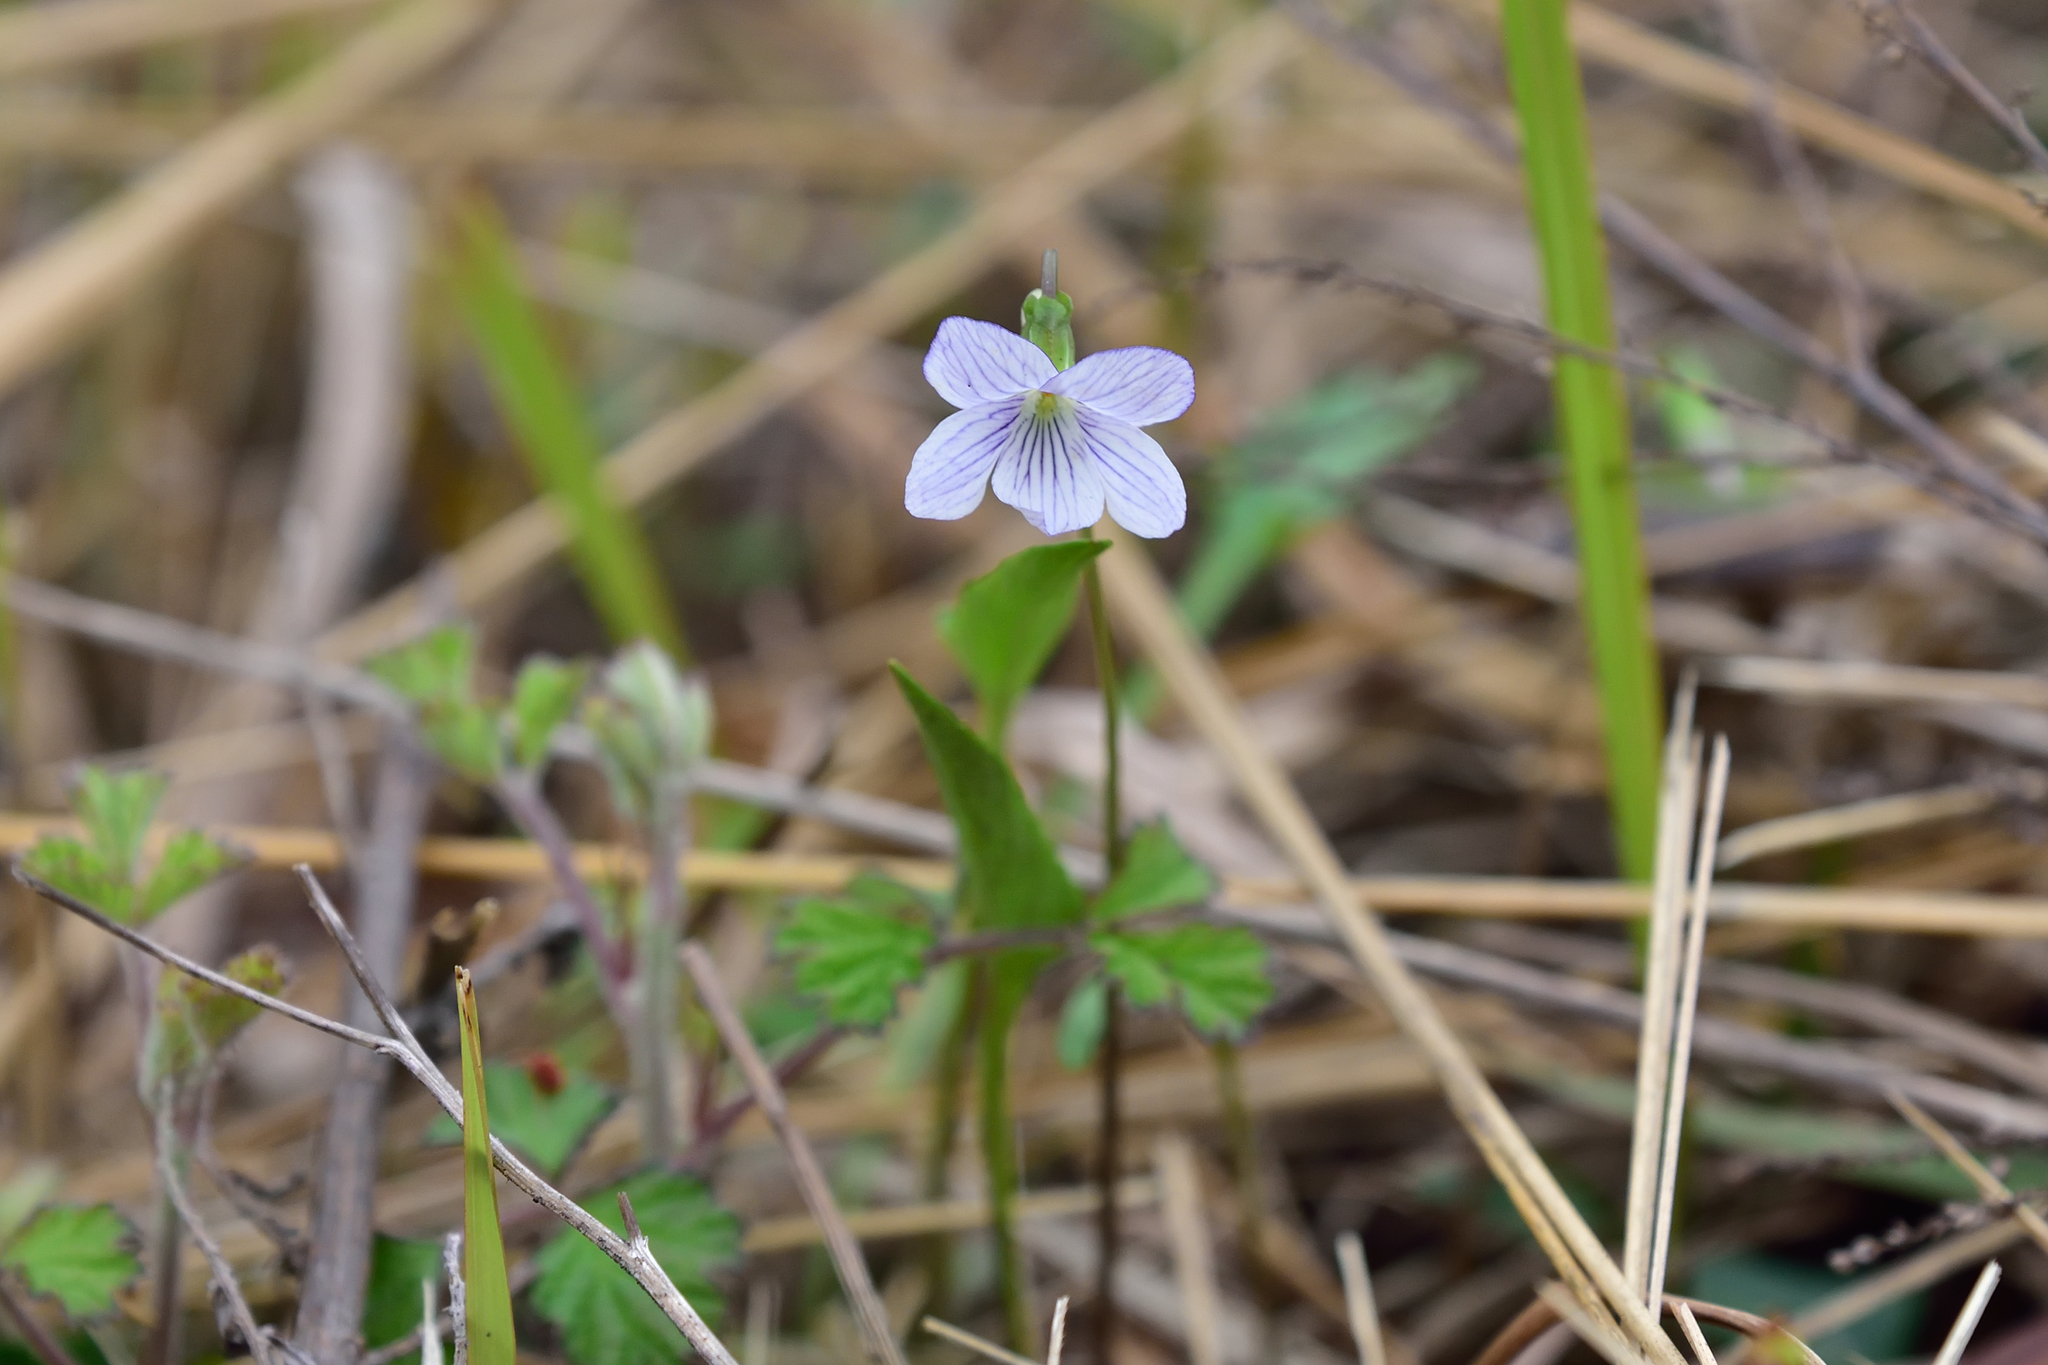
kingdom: Plantae
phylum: Tracheophyta
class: Magnoliopsida
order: Malpighiales
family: Violaceae
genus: Viola
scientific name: Viola betonicifolia
